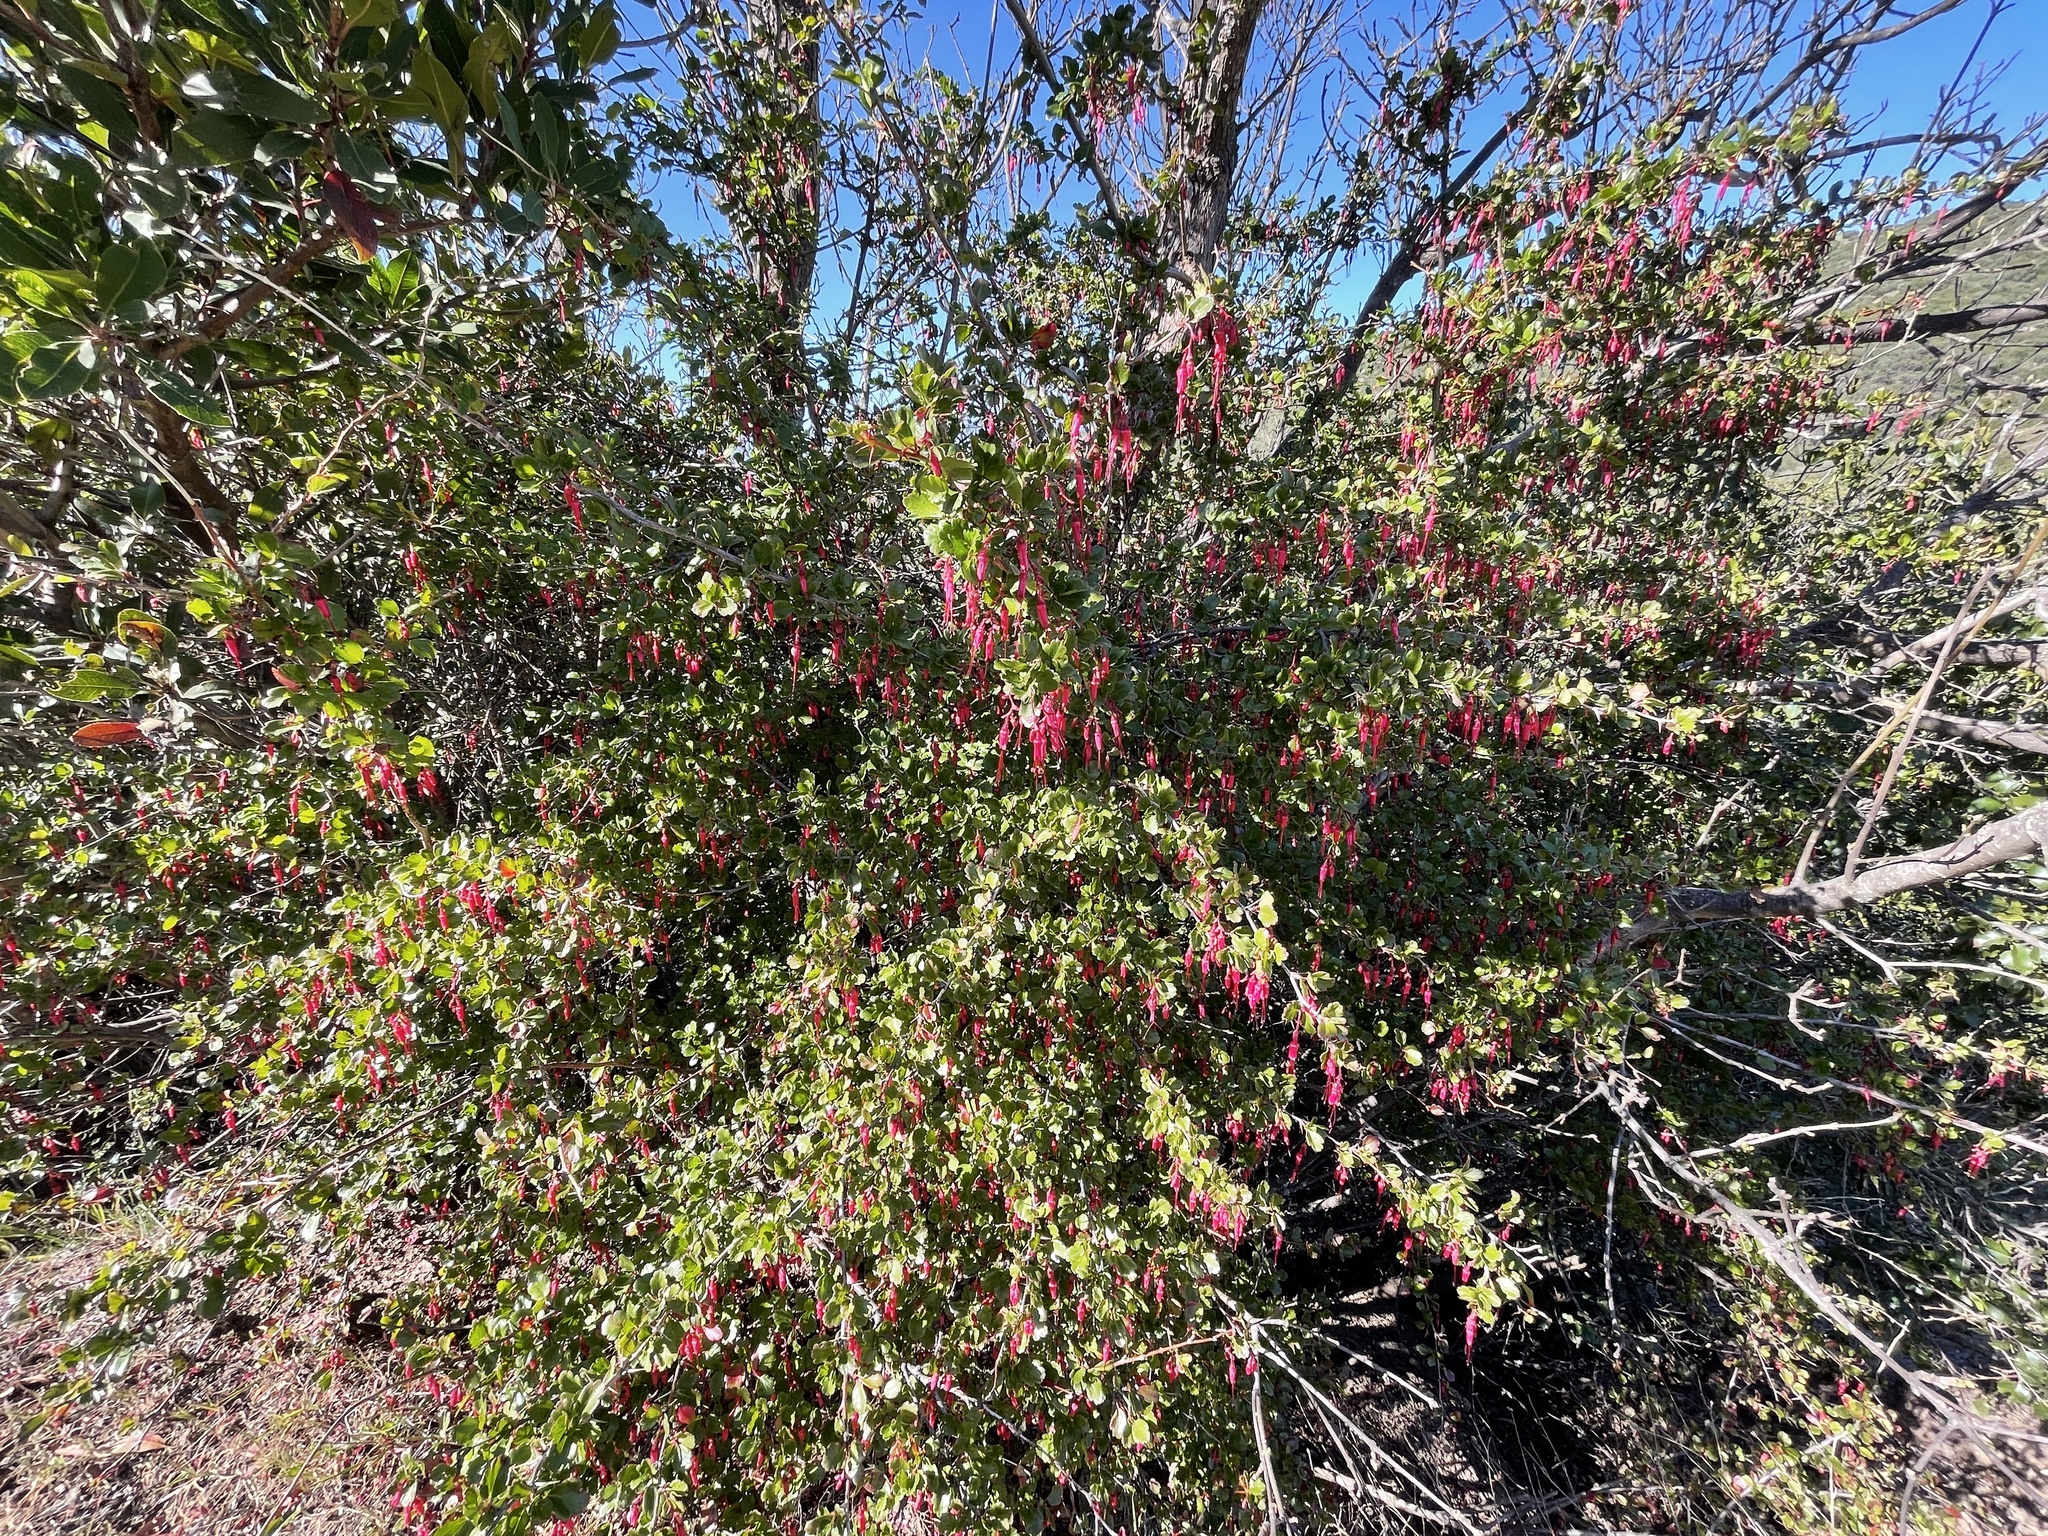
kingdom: Plantae
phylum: Tracheophyta
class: Magnoliopsida
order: Saxifragales
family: Grossulariaceae
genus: Ribes
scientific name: Ribes speciosum
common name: Fuchsia-flower gooseberry
